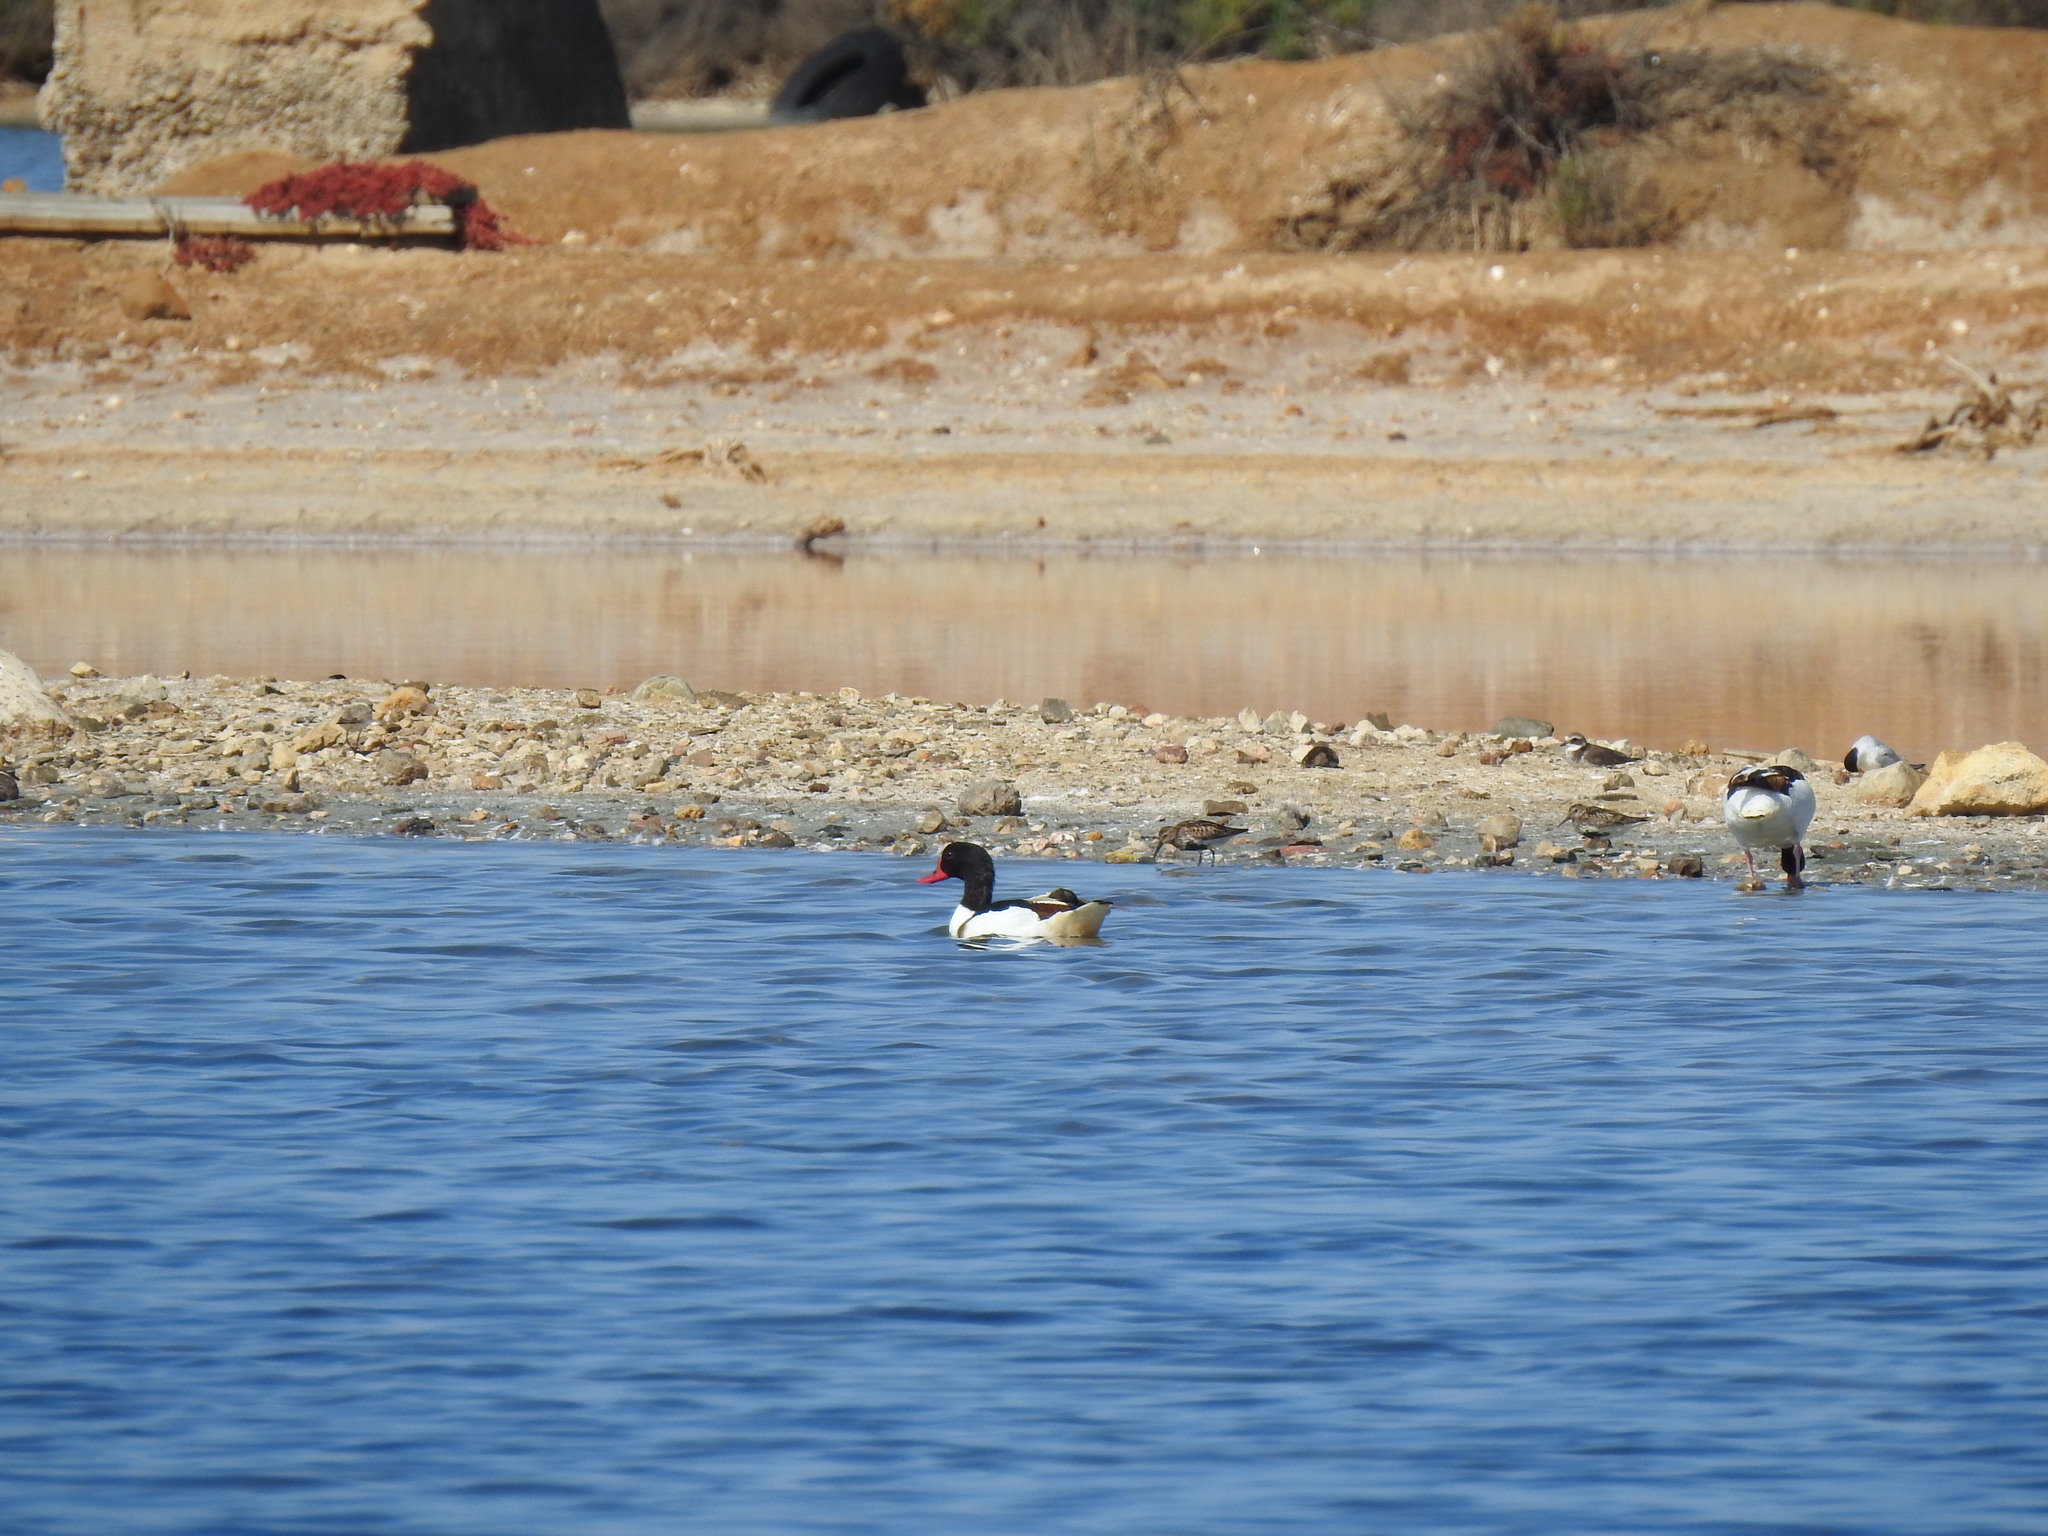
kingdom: Animalia
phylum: Chordata
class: Aves
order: Anseriformes
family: Anatidae
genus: Tadorna
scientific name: Tadorna tadorna
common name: Common shelduck
